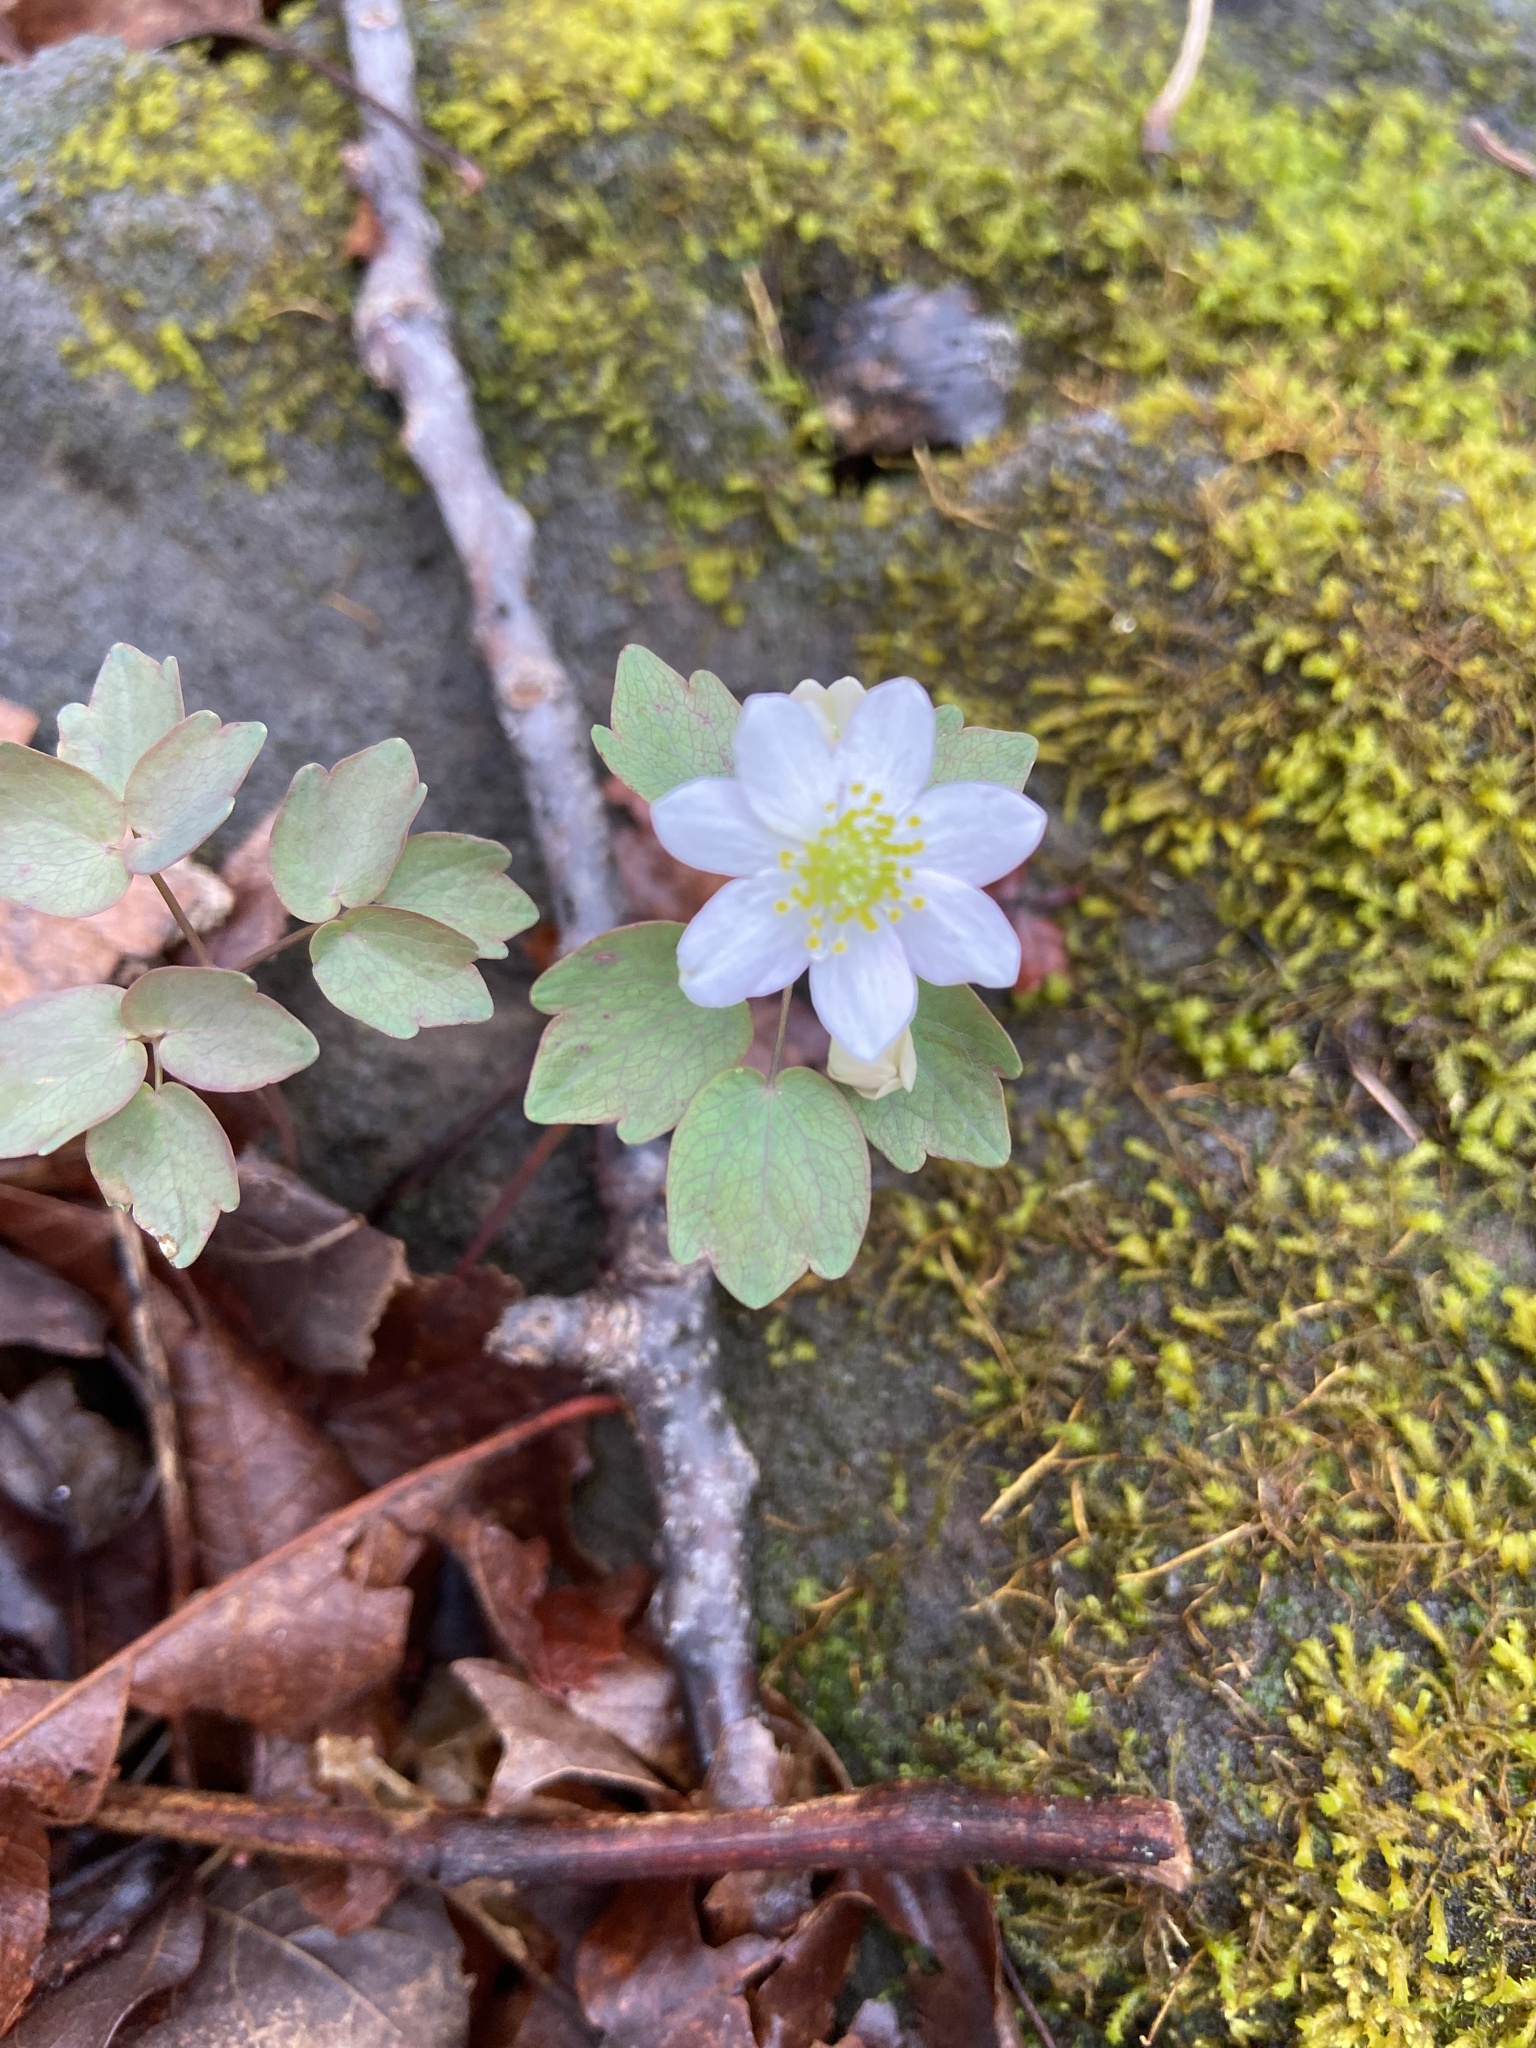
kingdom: Plantae
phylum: Tracheophyta
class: Magnoliopsida
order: Ranunculales
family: Ranunculaceae
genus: Thalictrum
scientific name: Thalictrum thalictroides
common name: Rue-anemone
